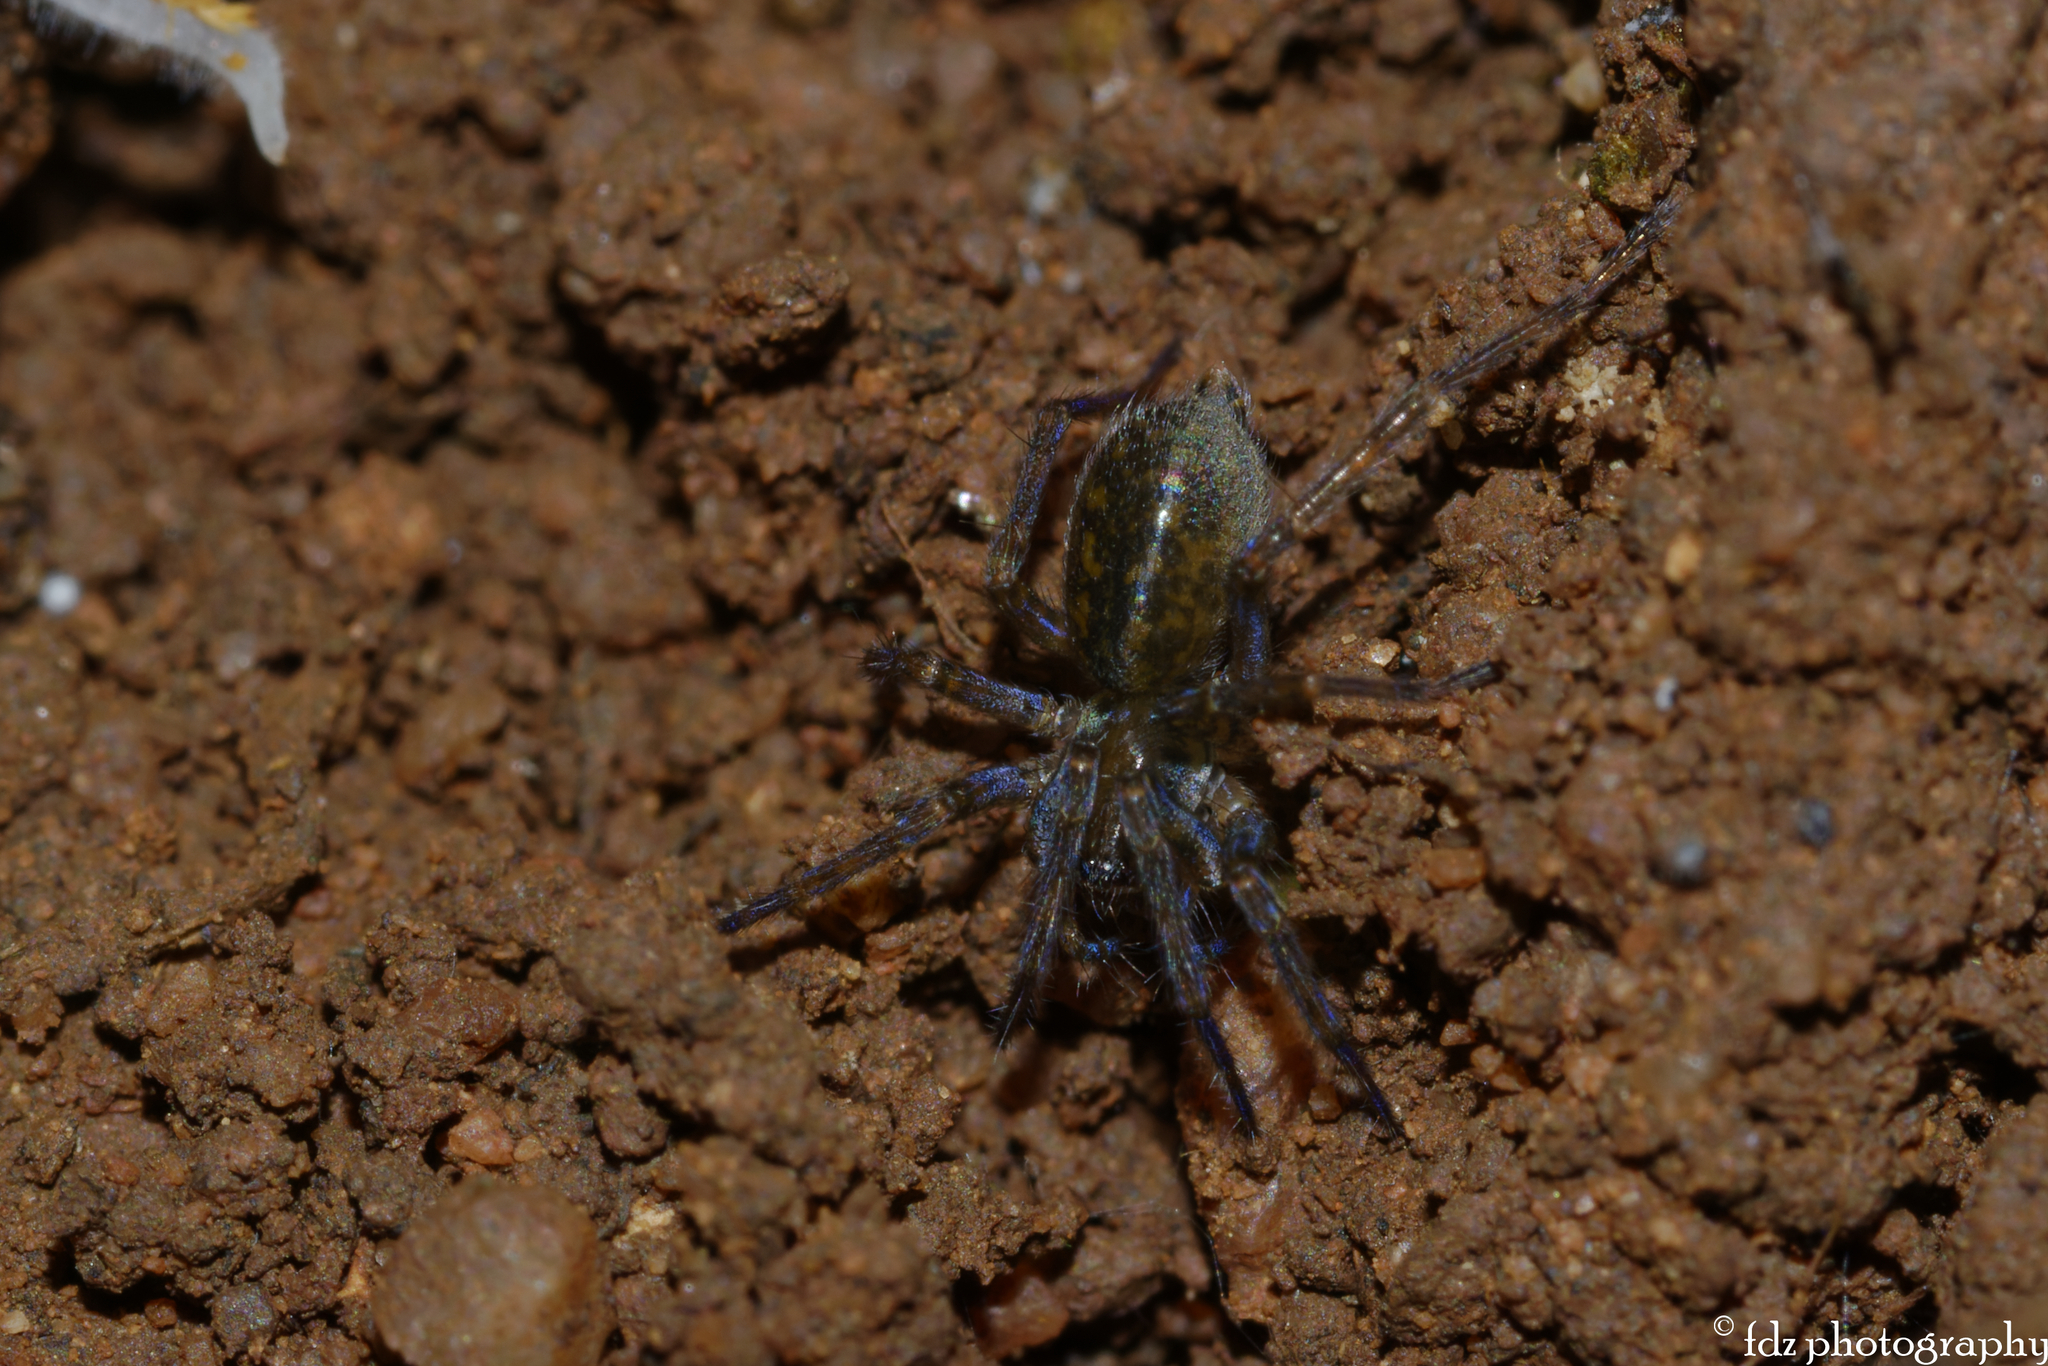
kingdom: Animalia
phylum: Arthropoda
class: Arachnida
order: Araneae
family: Agelenidae
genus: Lycosoides
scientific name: Lycosoides coarctata
